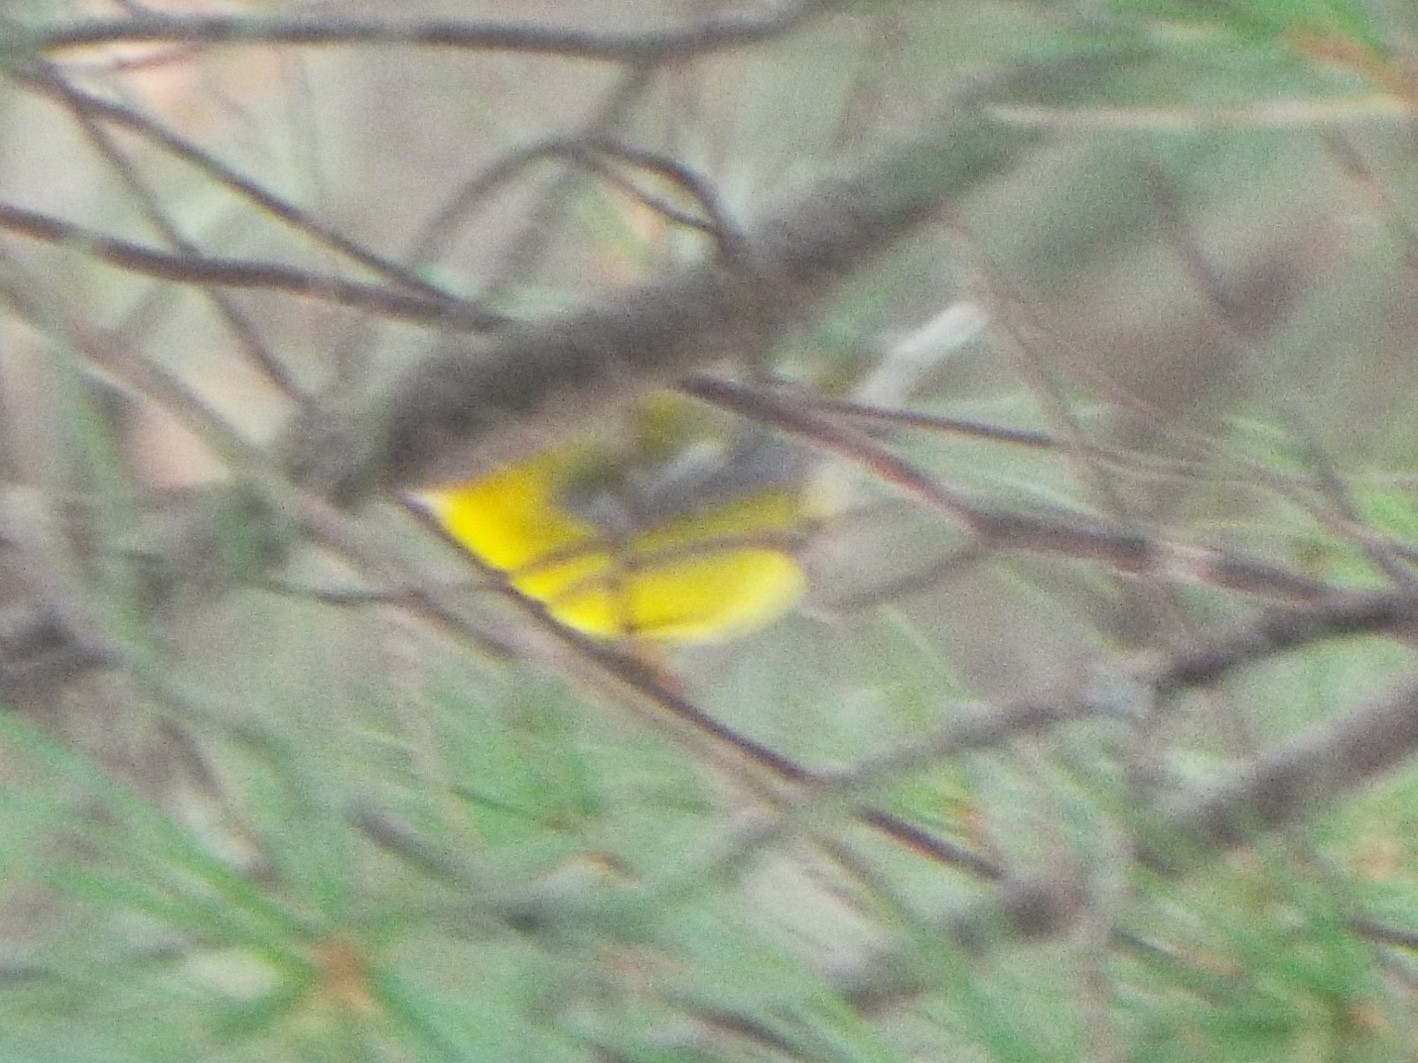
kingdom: Animalia
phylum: Chordata
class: Aves
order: Passeriformes
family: Parulidae
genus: Vermivora
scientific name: Vermivora cyanoptera
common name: Blue-winged warbler
